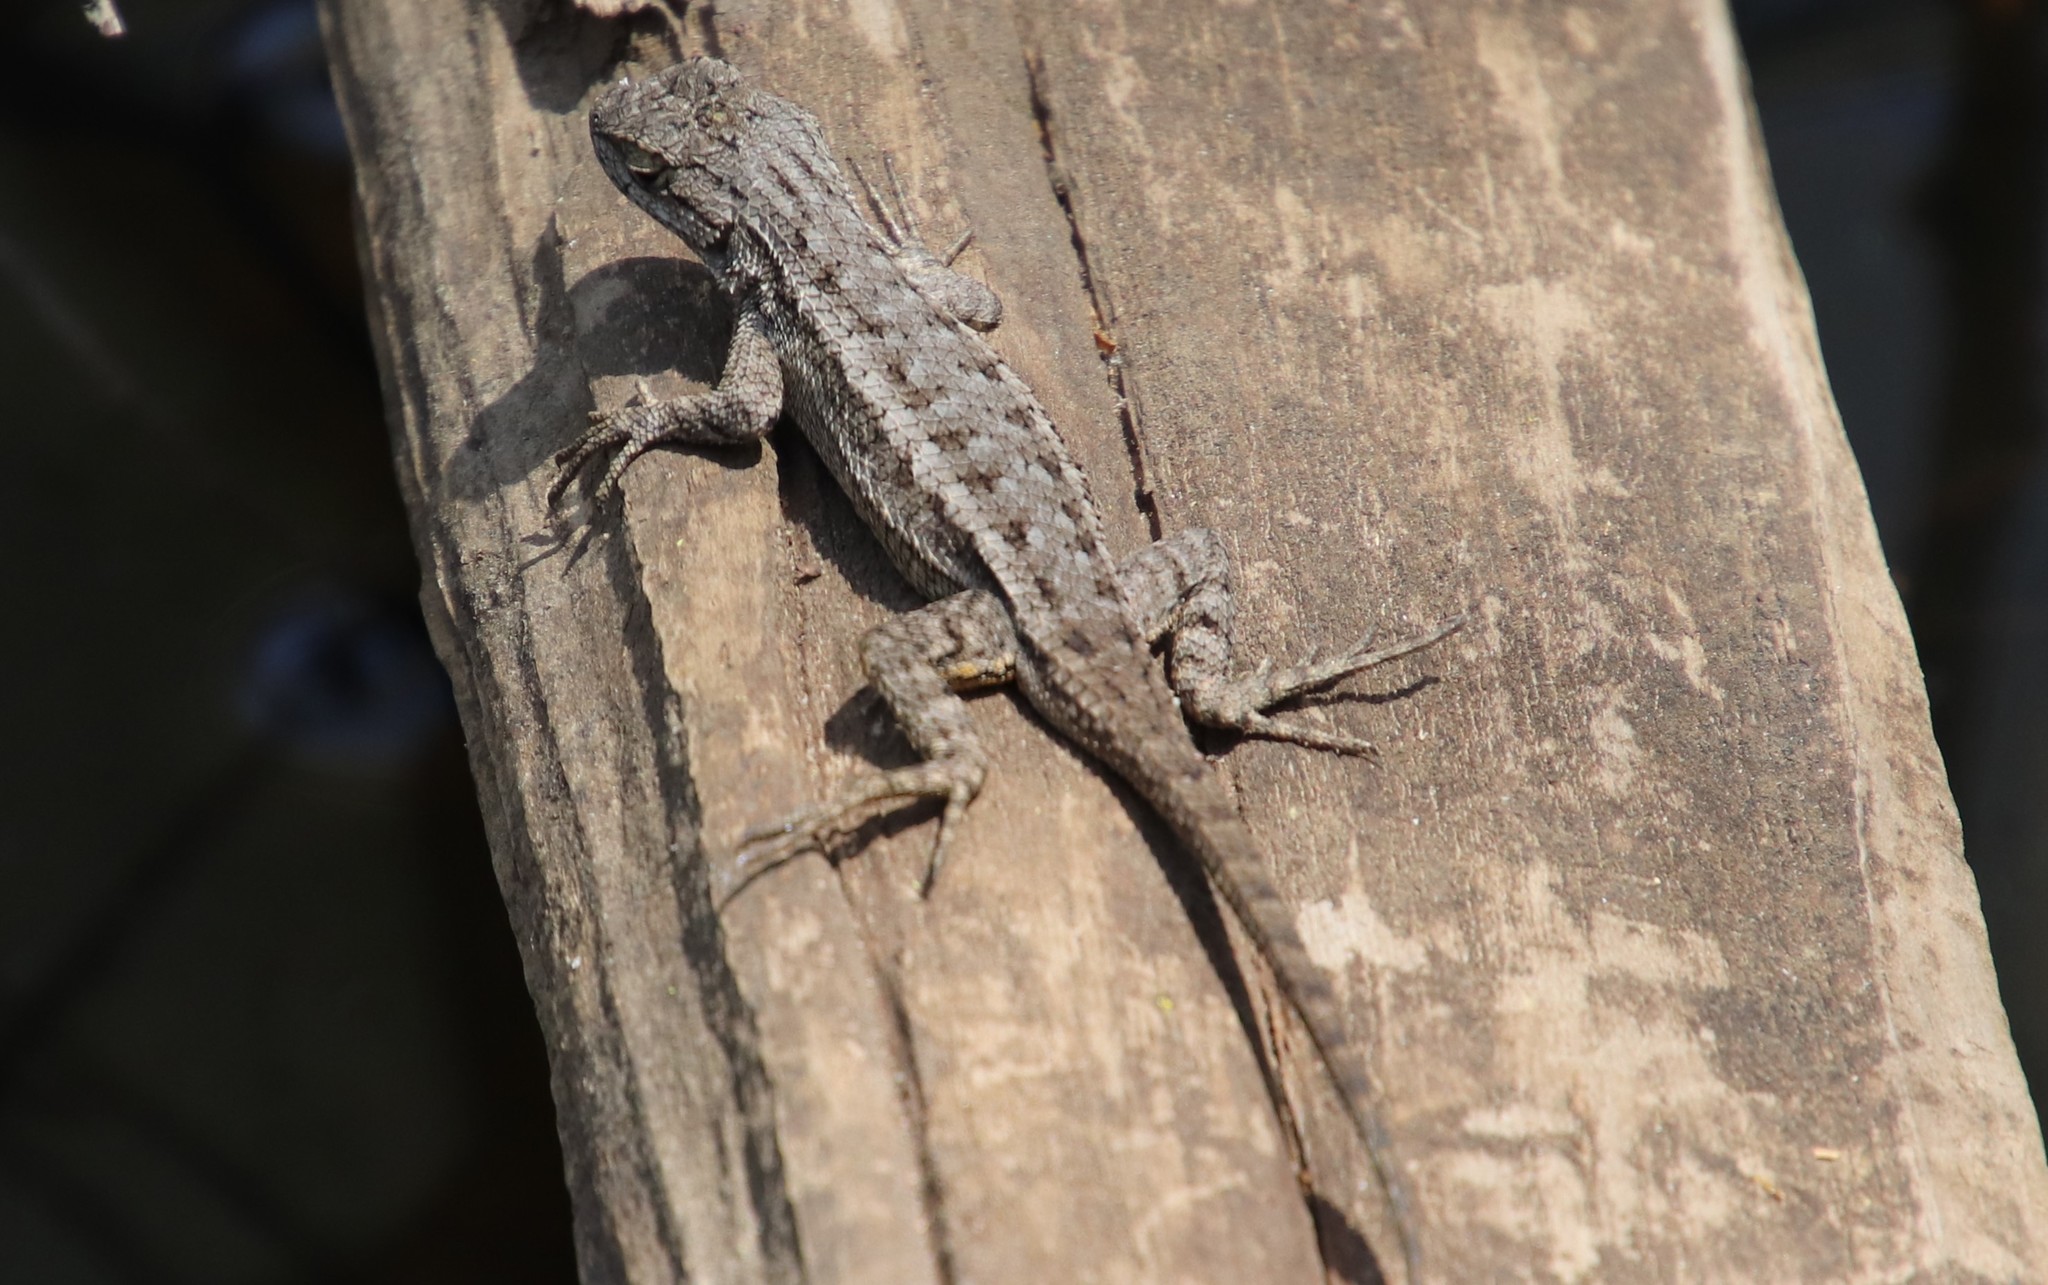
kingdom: Animalia
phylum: Chordata
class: Squamata
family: Phrynosomatidae
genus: Sceloporus
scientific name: Sceloporus occidentalis
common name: Western fence lizard
